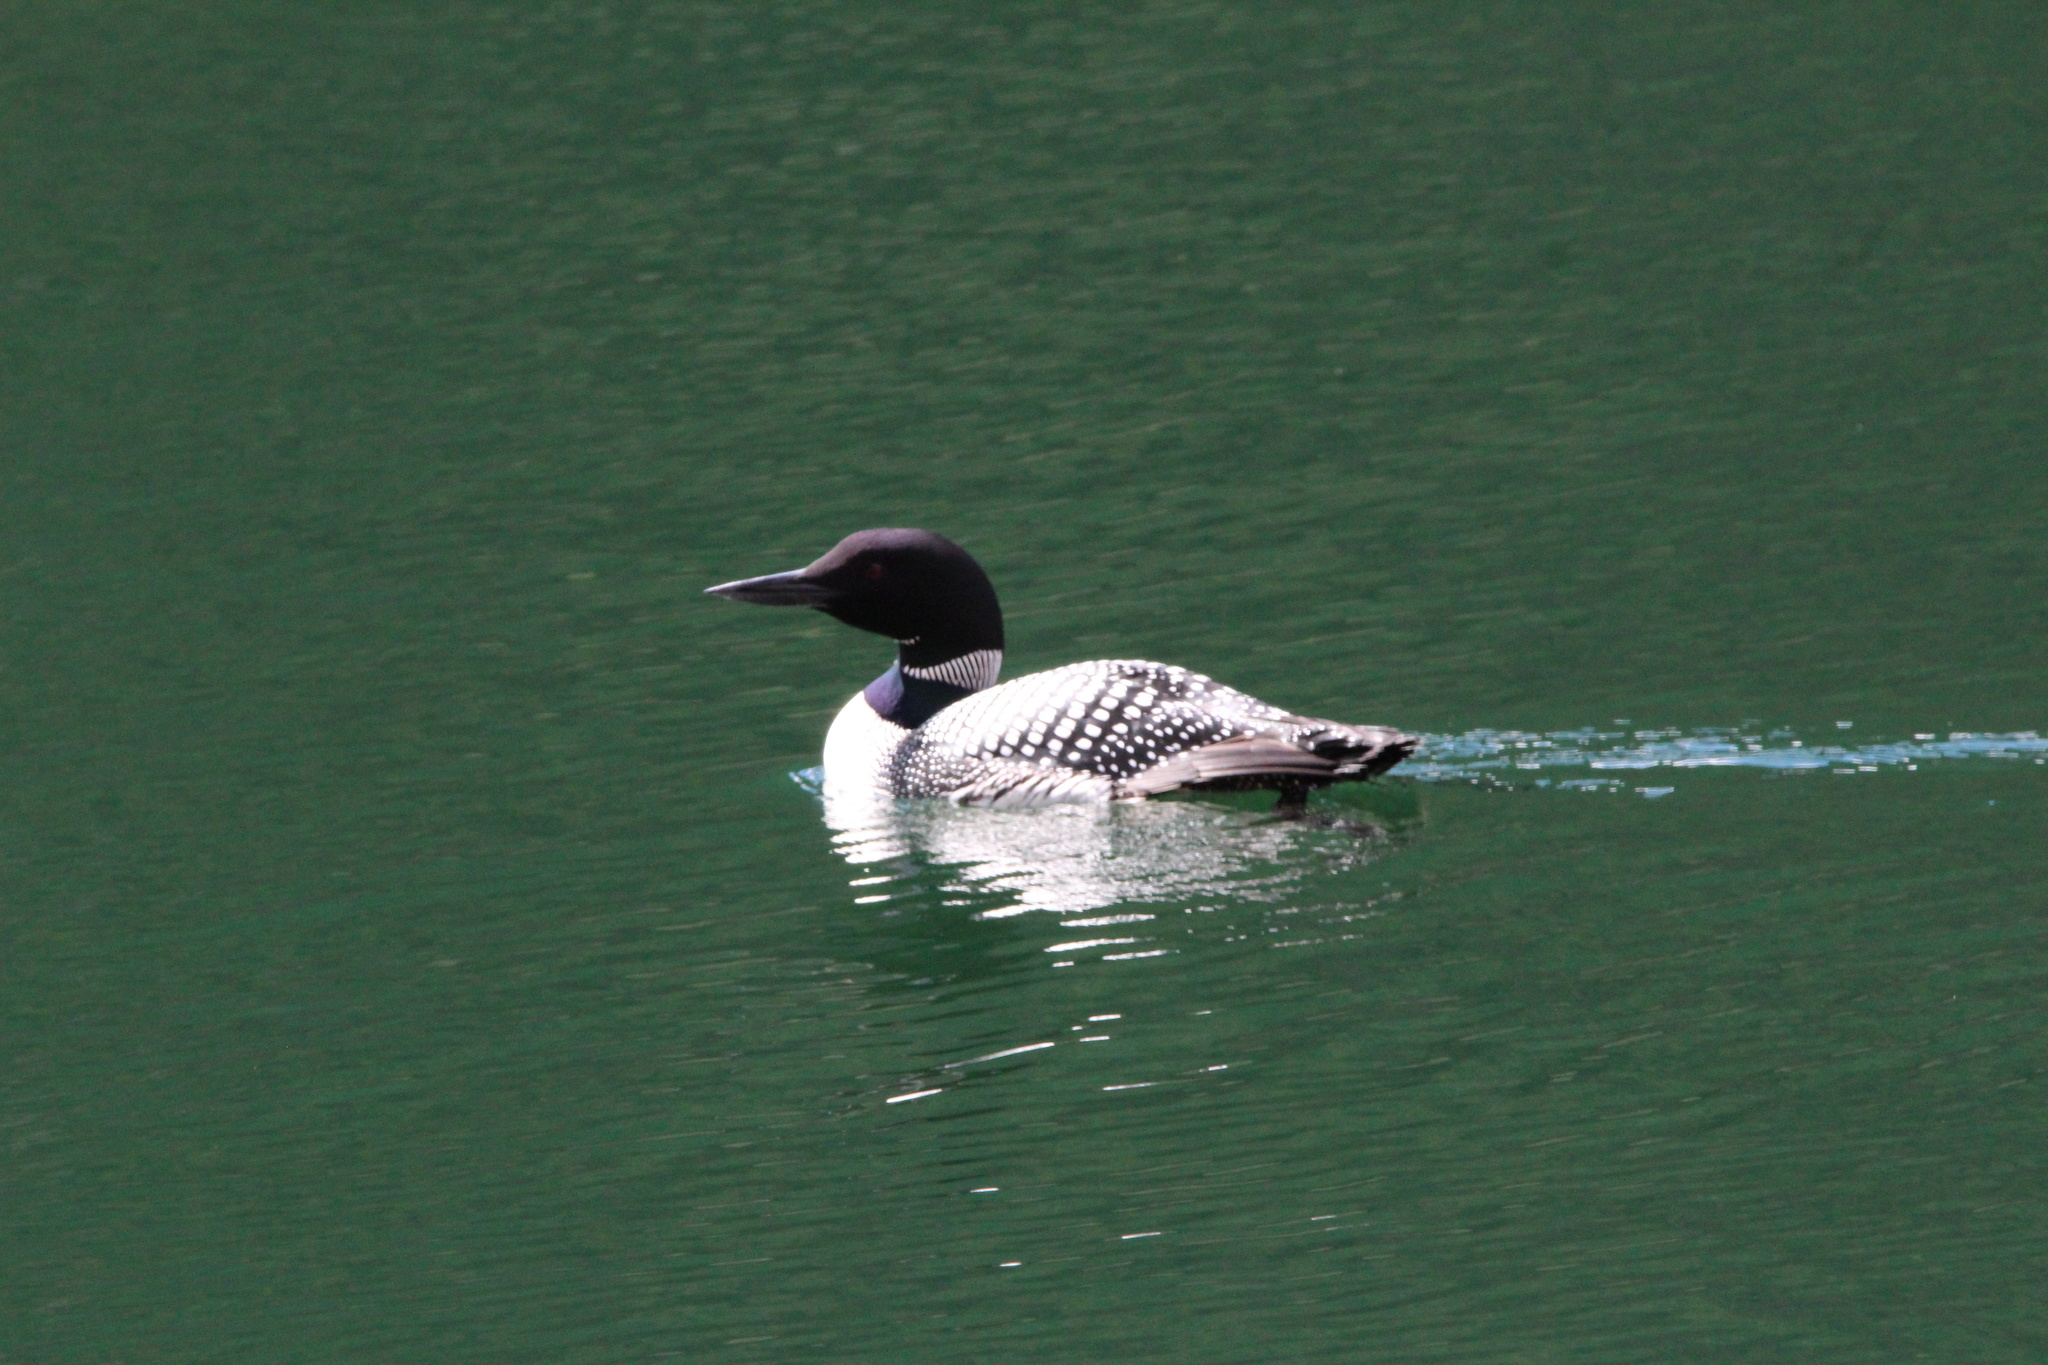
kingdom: Animalia
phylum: Chordata
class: Aves
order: Gaviiformes
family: Gaviidae
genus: Gavia
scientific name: Gavia immer
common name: Common loon
